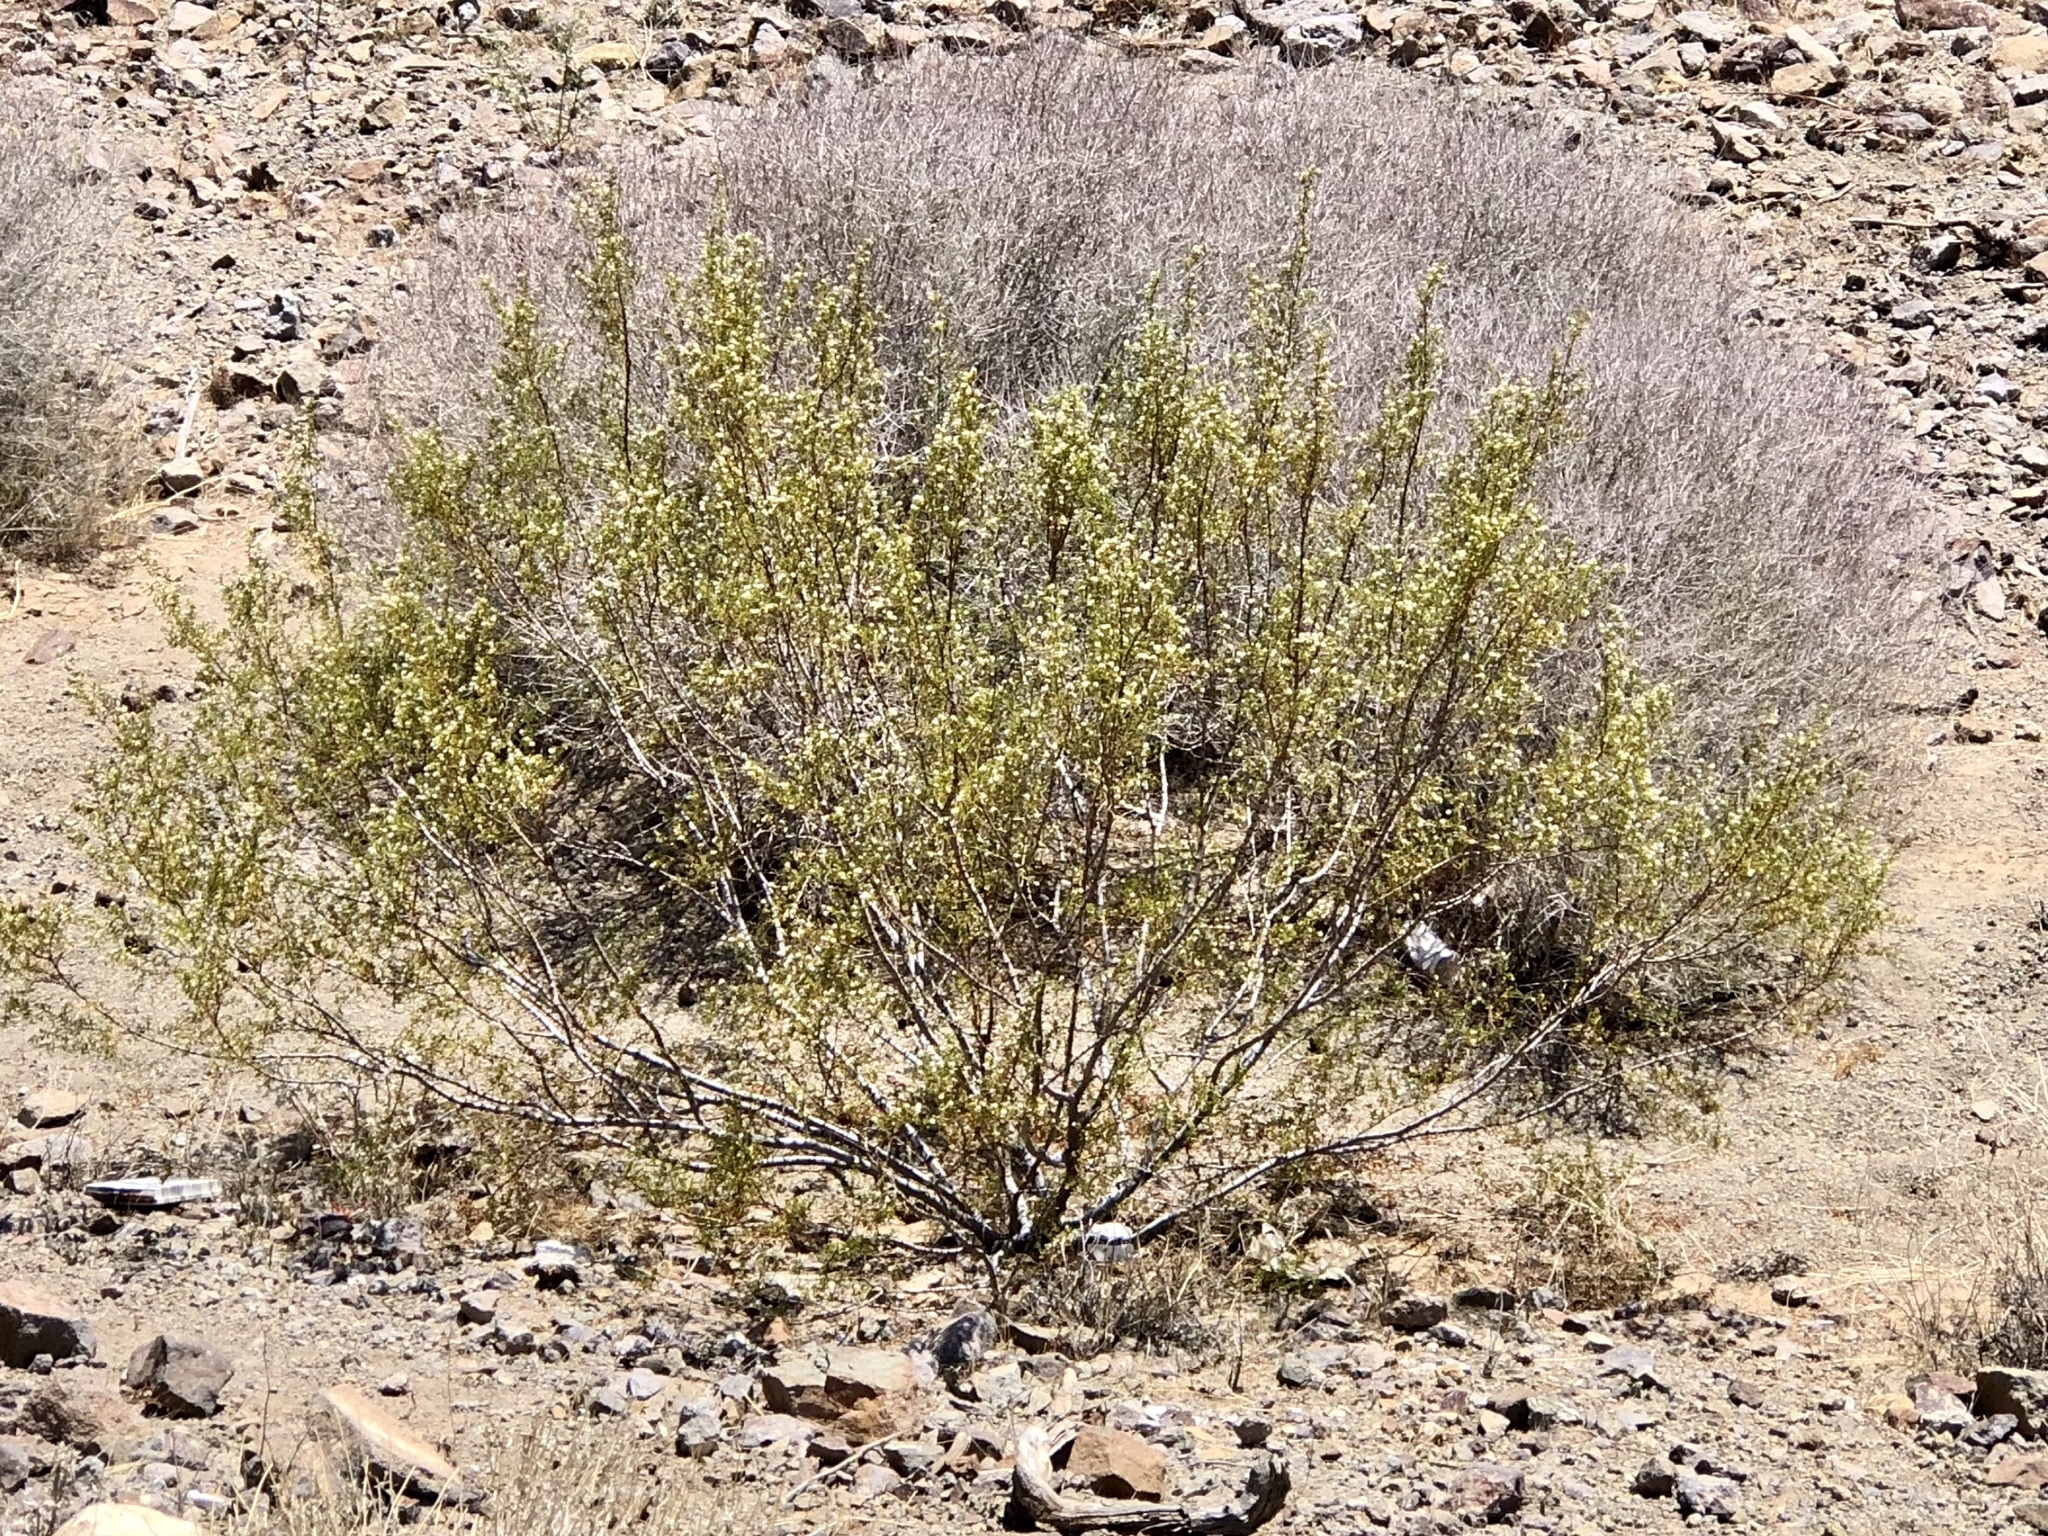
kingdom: Plantae
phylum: Tracheophyta
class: Magnoliopsida
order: Zygophyllales
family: Zygophyllaceae
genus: Larrea
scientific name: Larrea tridentata
